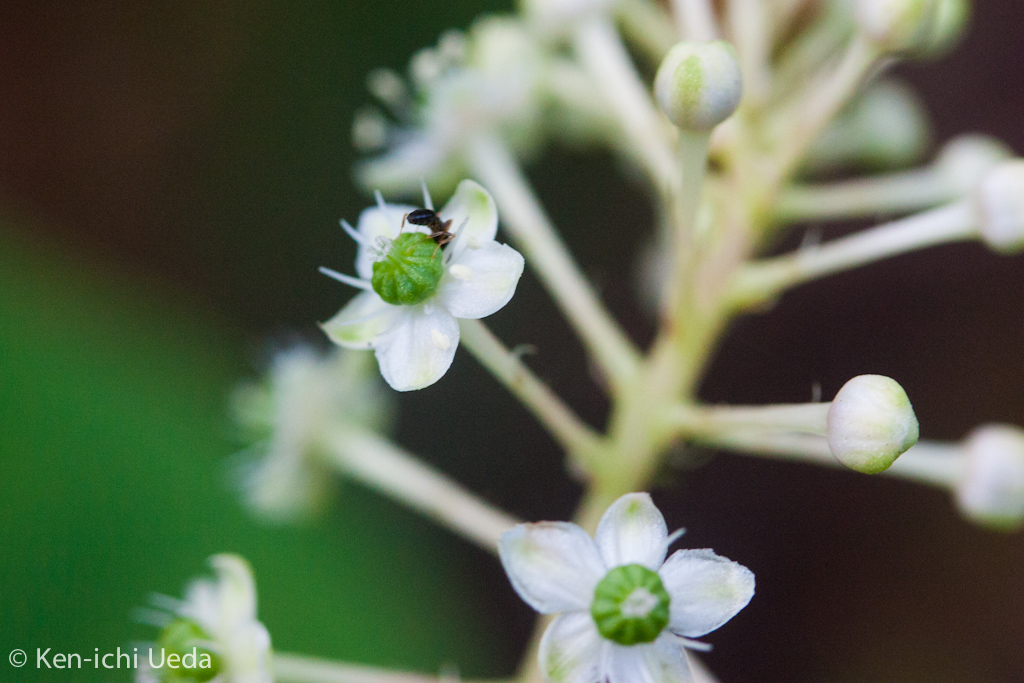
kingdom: Plantae
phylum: Tracheophyta
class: Magnoliopsida
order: Caryophyllales
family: Phytolaccaceae
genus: Phytolacca
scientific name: Phytolacca americana
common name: American pokeweed
